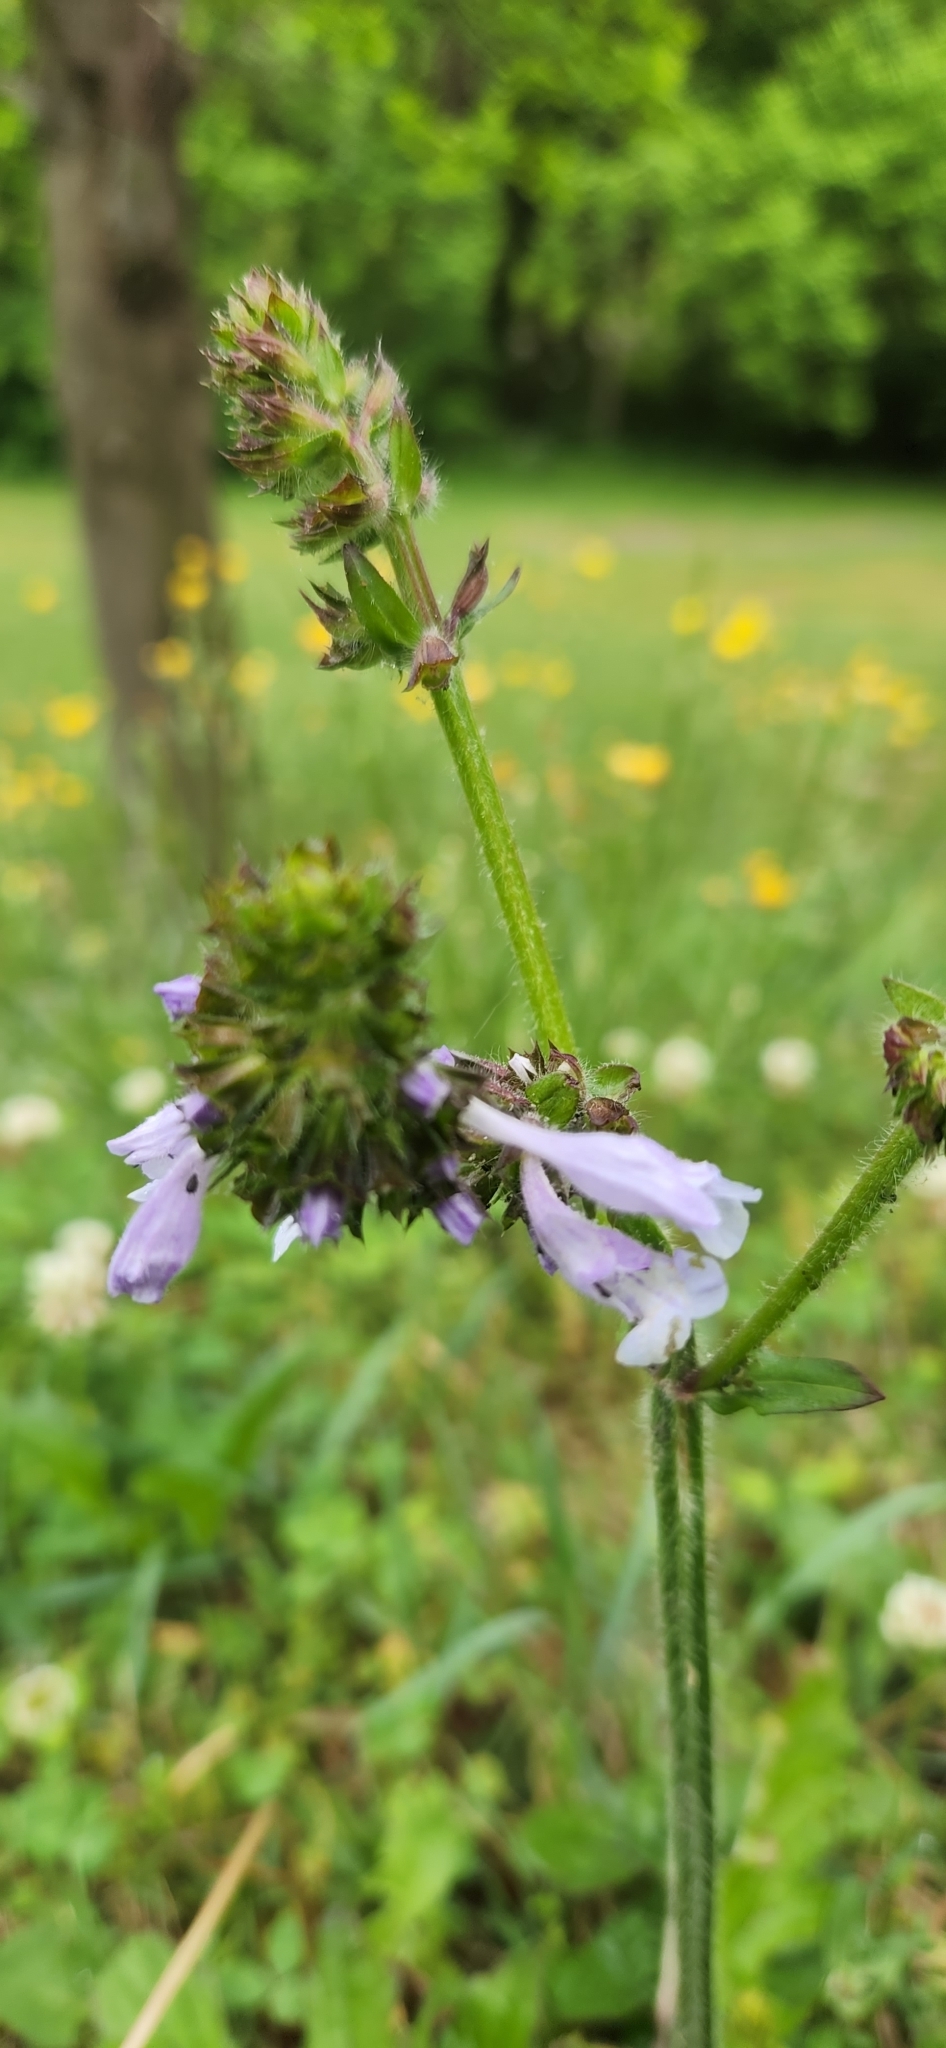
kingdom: Plantae
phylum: Tracheophyta
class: Magnoliopsida
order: Lamiales
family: Lamiaceae
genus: Salvia
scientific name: Salvia lyrata
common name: Cancerweed
